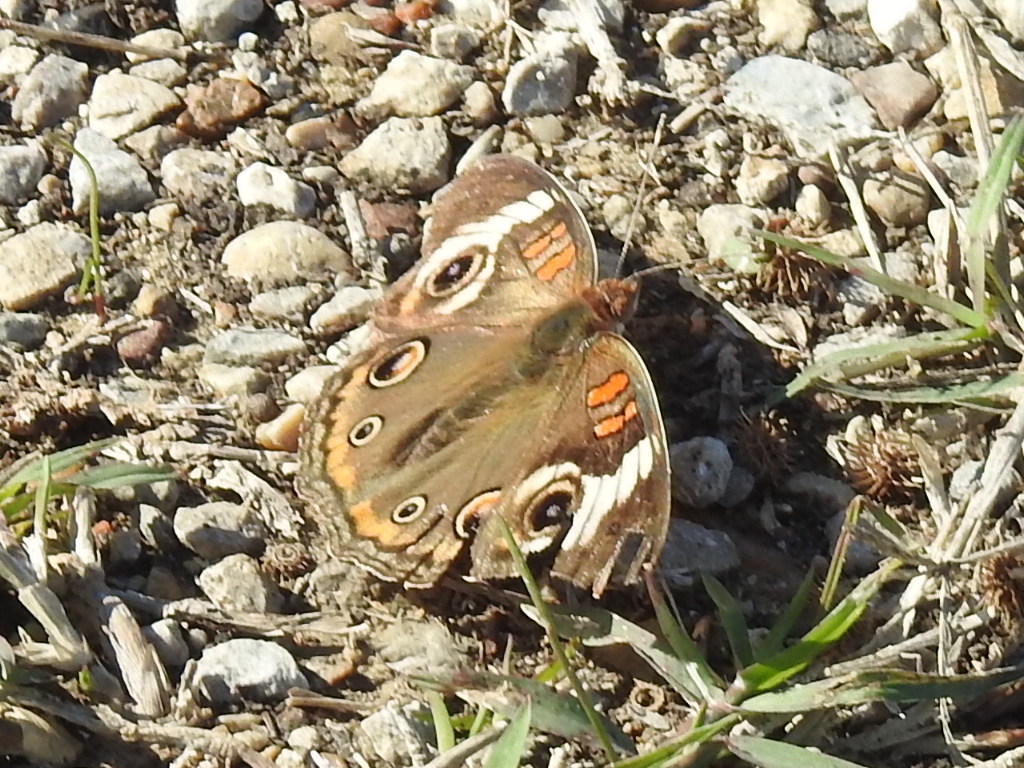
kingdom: Animalia
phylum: Arthropoda
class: Insecta
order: Lepidoptera
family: Nymphalidae
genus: Junonia
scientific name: Junonia coenia
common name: Common buckeye
